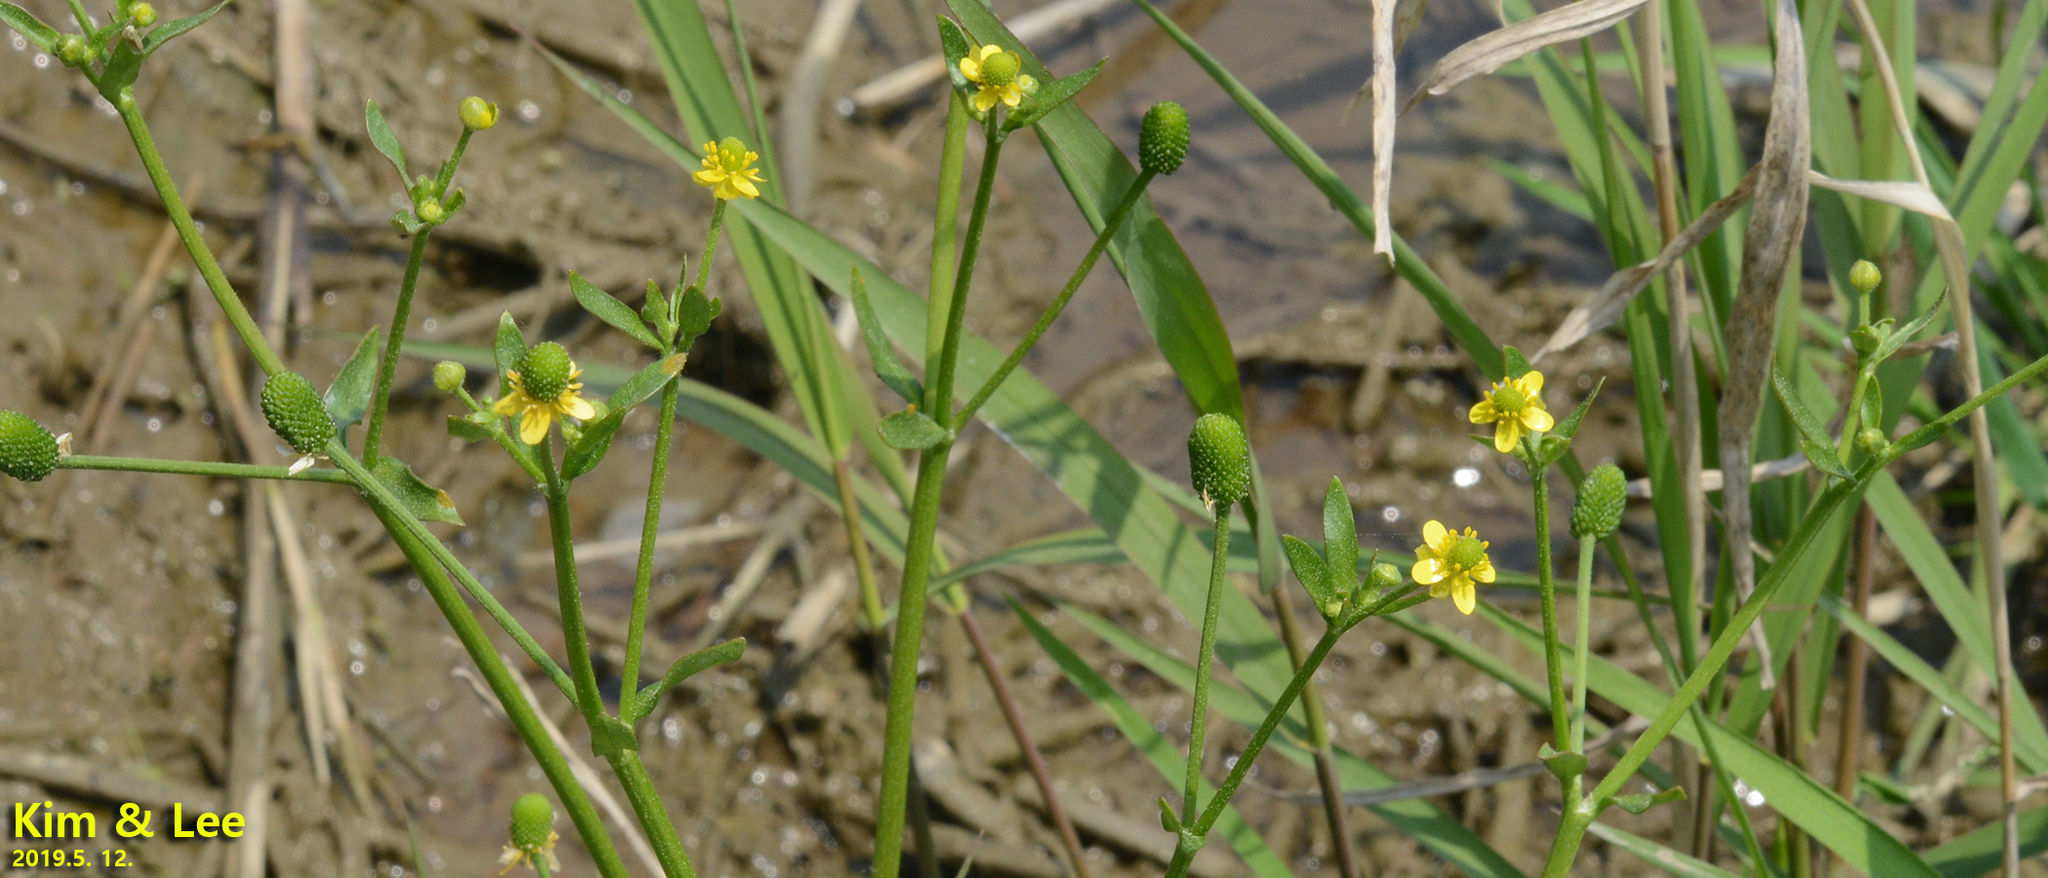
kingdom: Plantae
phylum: Tracheophyta
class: Magnoliopsida
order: Ranunculales
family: Ranunculaceae
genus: Ranunculus
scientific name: Ranunculus sceleratus
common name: Celery-leaved buttercup
